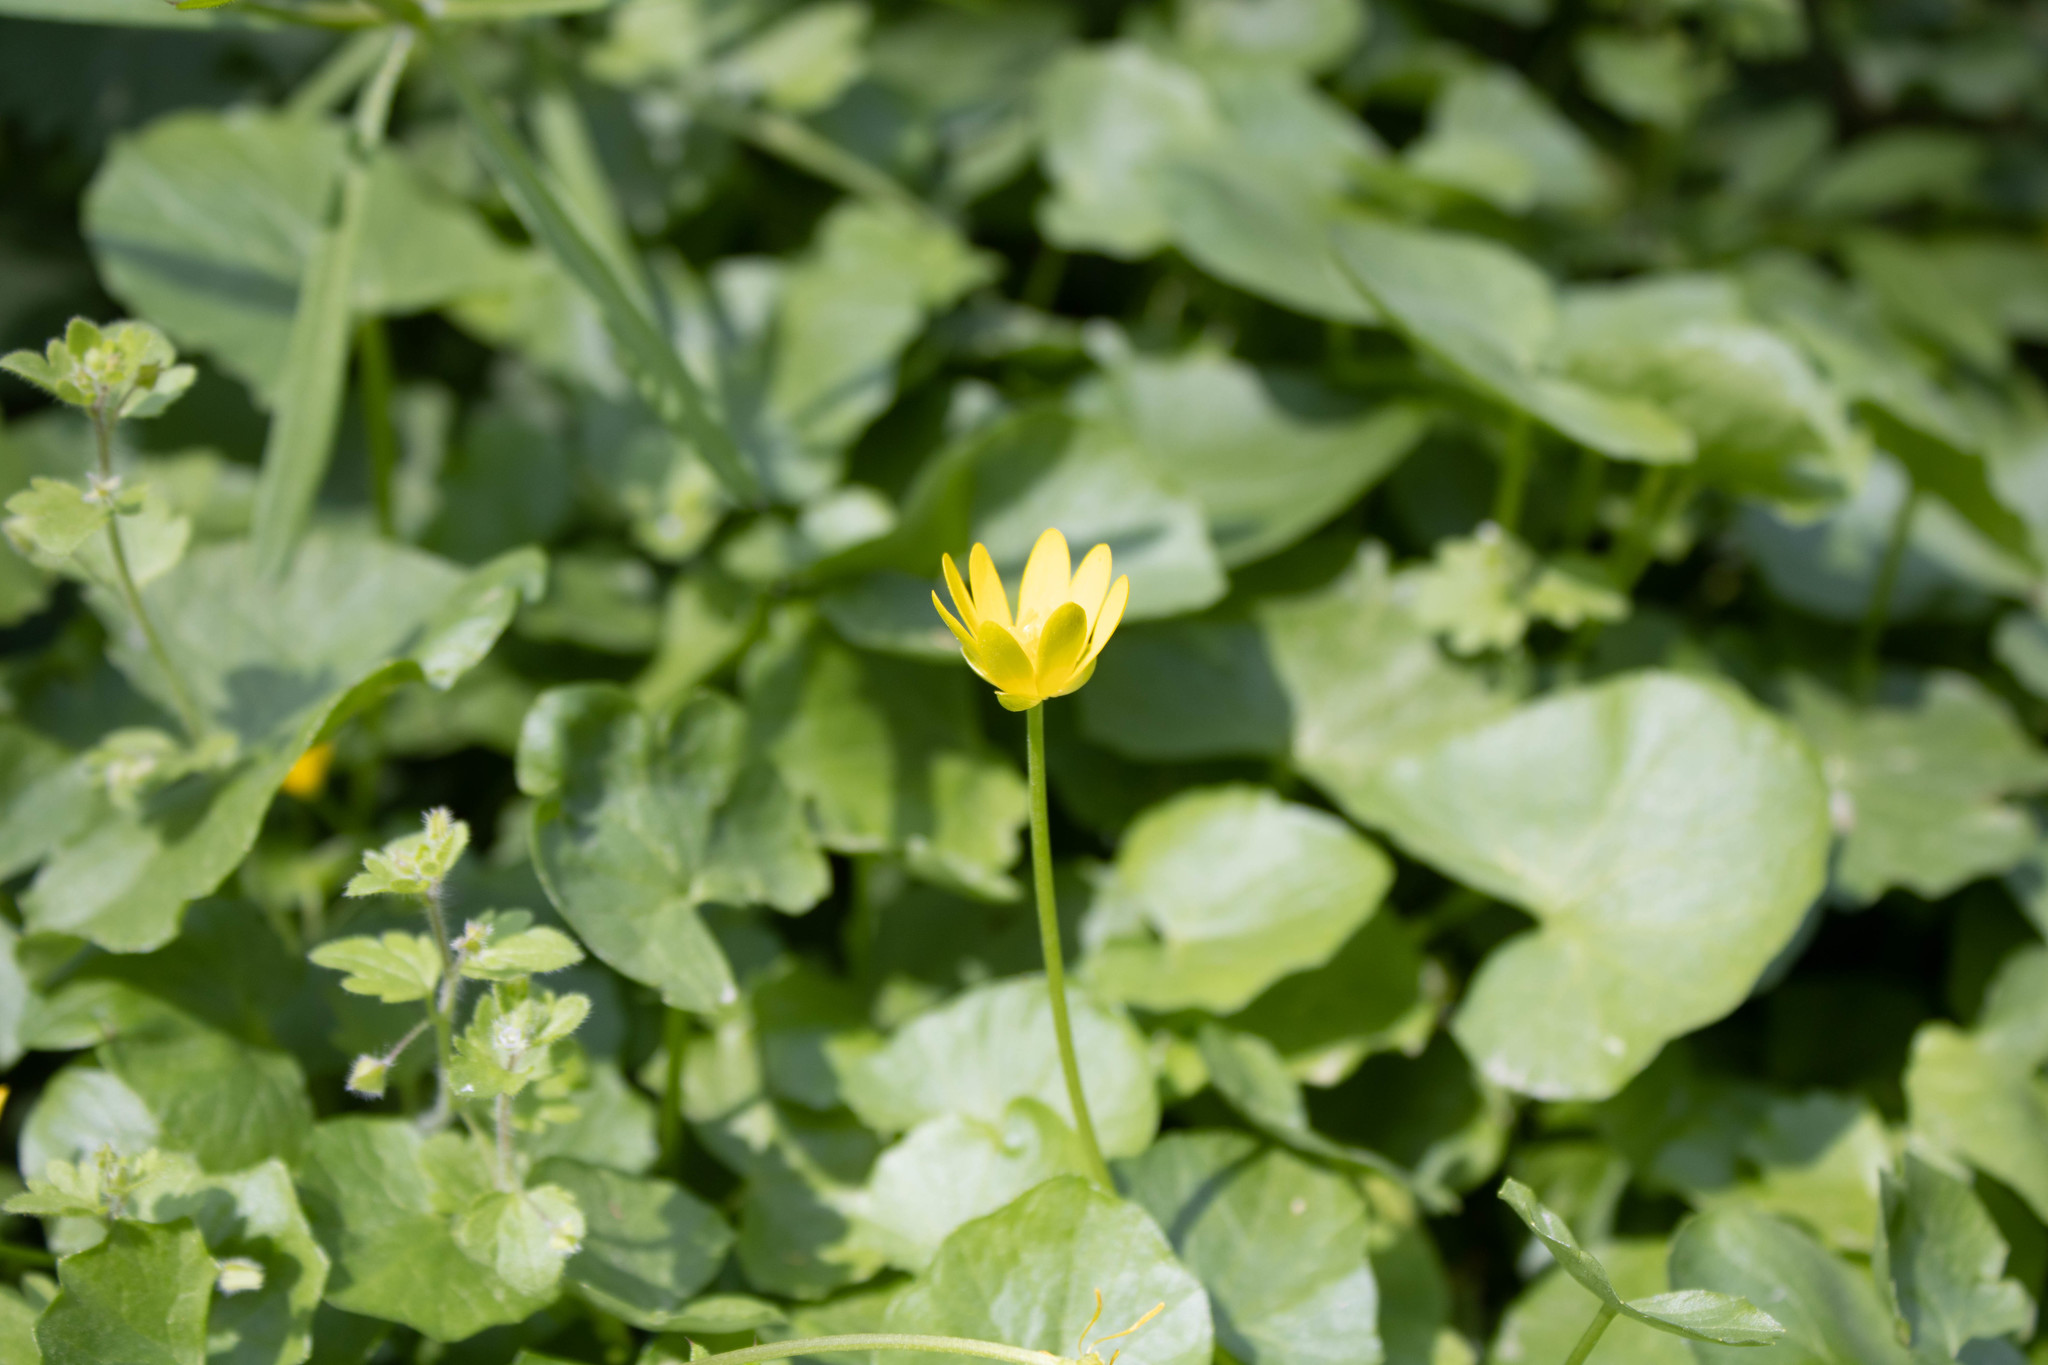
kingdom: Plantae
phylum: Tracheophyta
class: Magnoliopsida
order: Ranunculales
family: Ranunculaceae
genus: Ficaria
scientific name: Ficaria verna
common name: Lesser celandine
